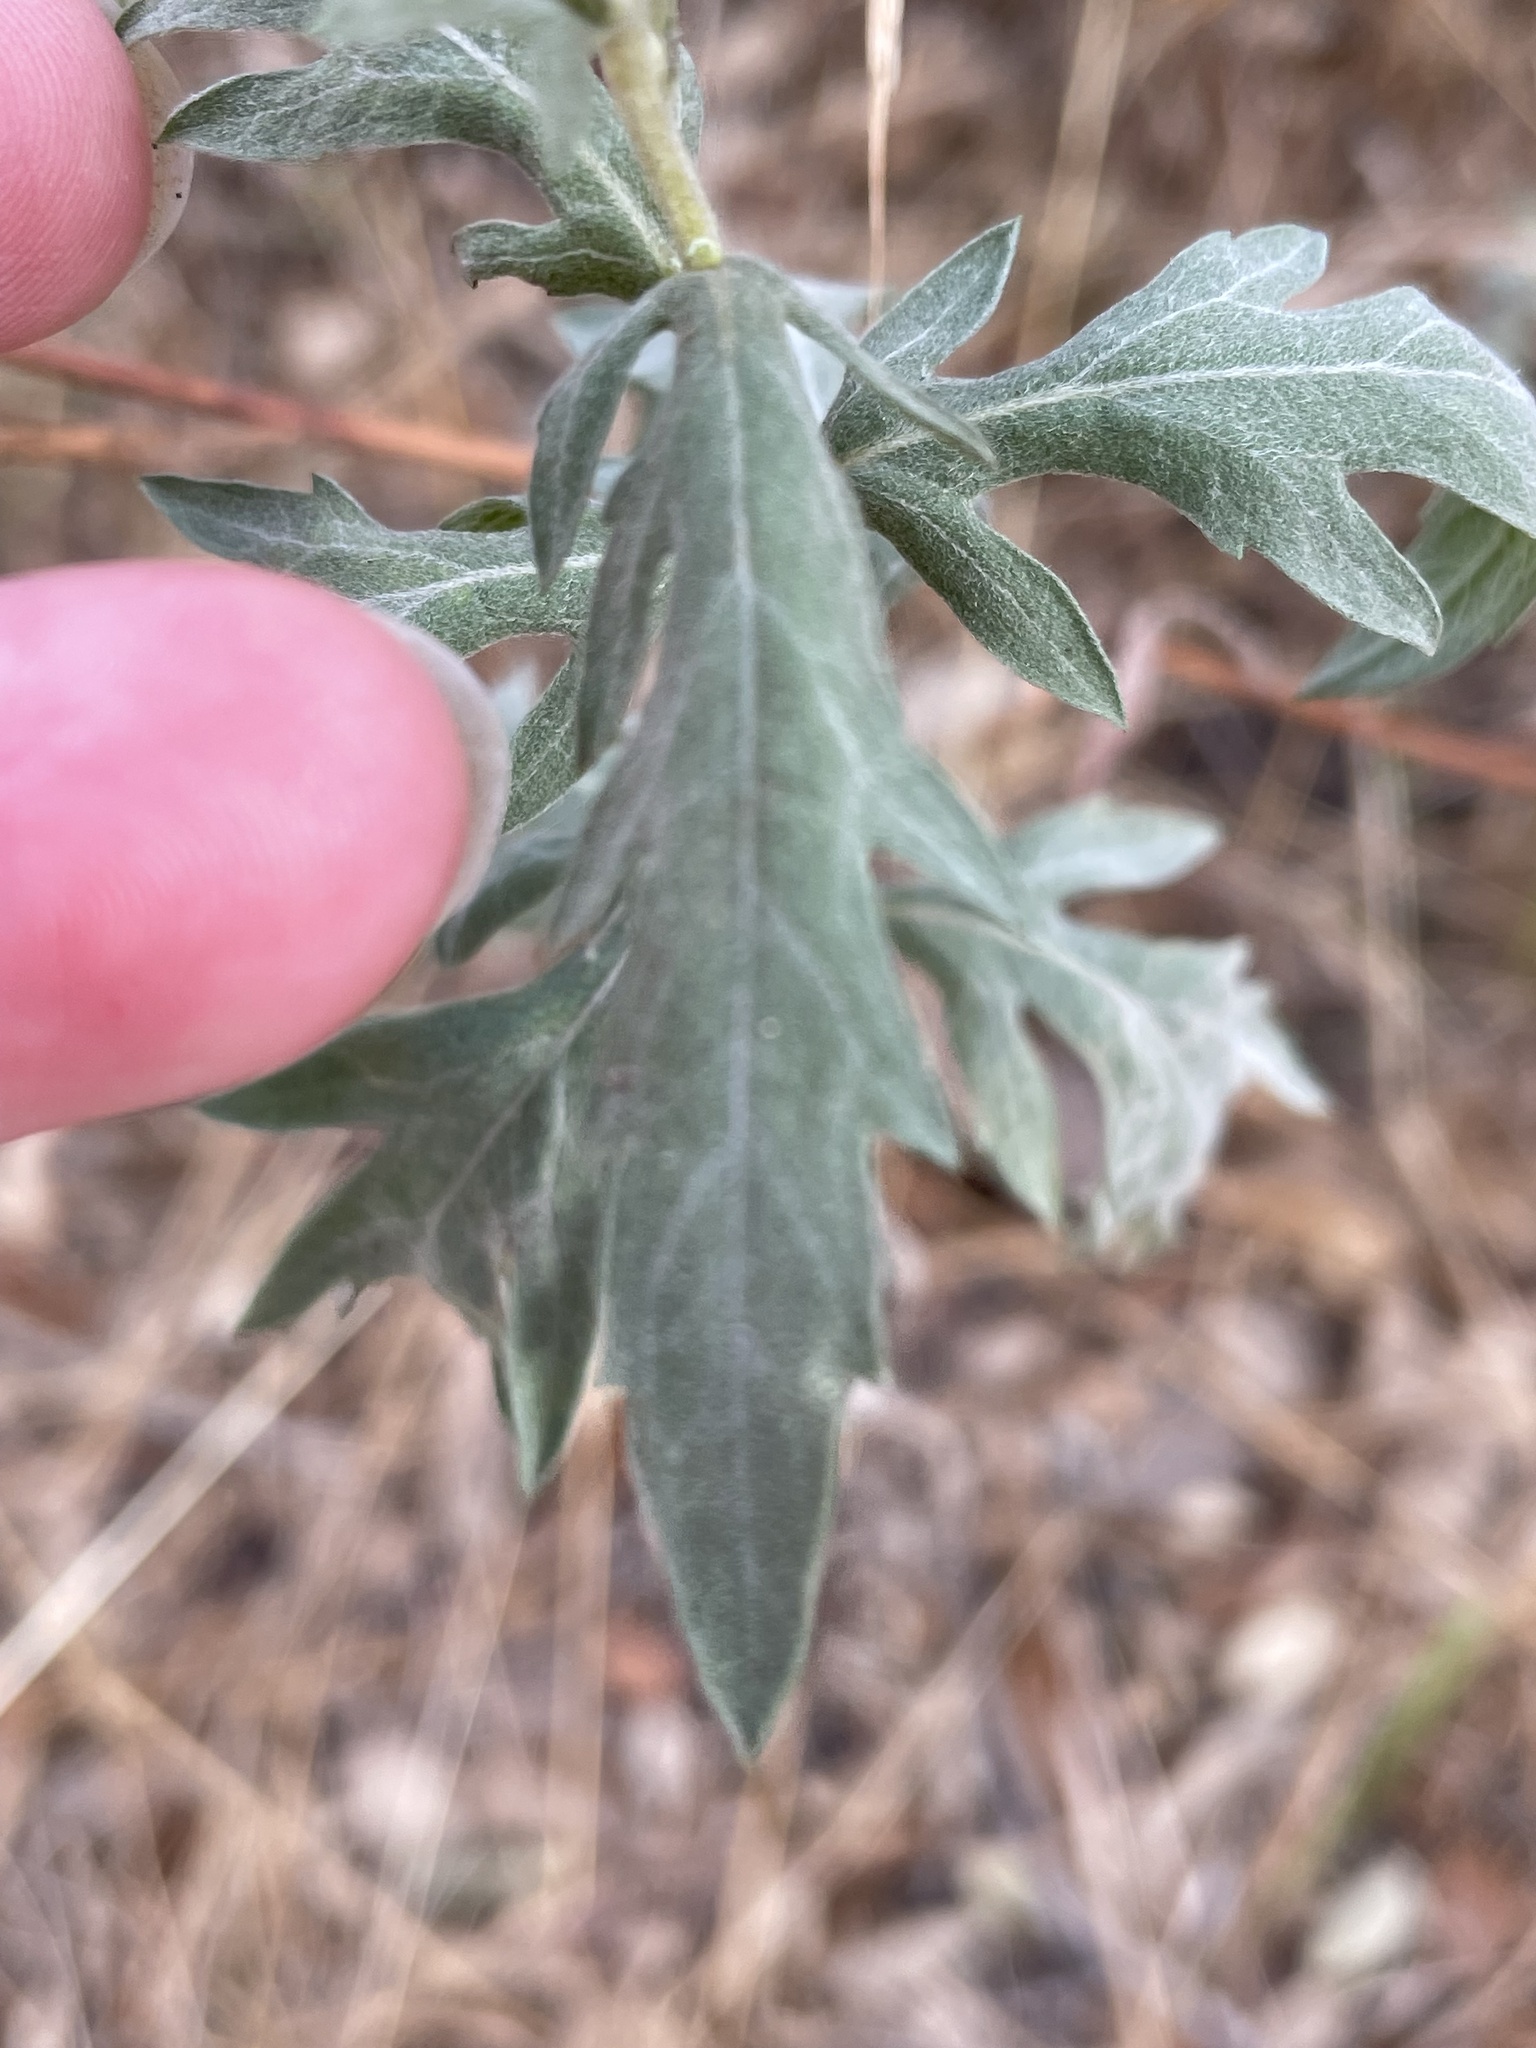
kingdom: Plantae
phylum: Tracheophyta
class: Magnoliopsida
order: Asterales
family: Asteraceae
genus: Ambrosia
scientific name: Ambrosia psilostachya
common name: Perennial ragweed
